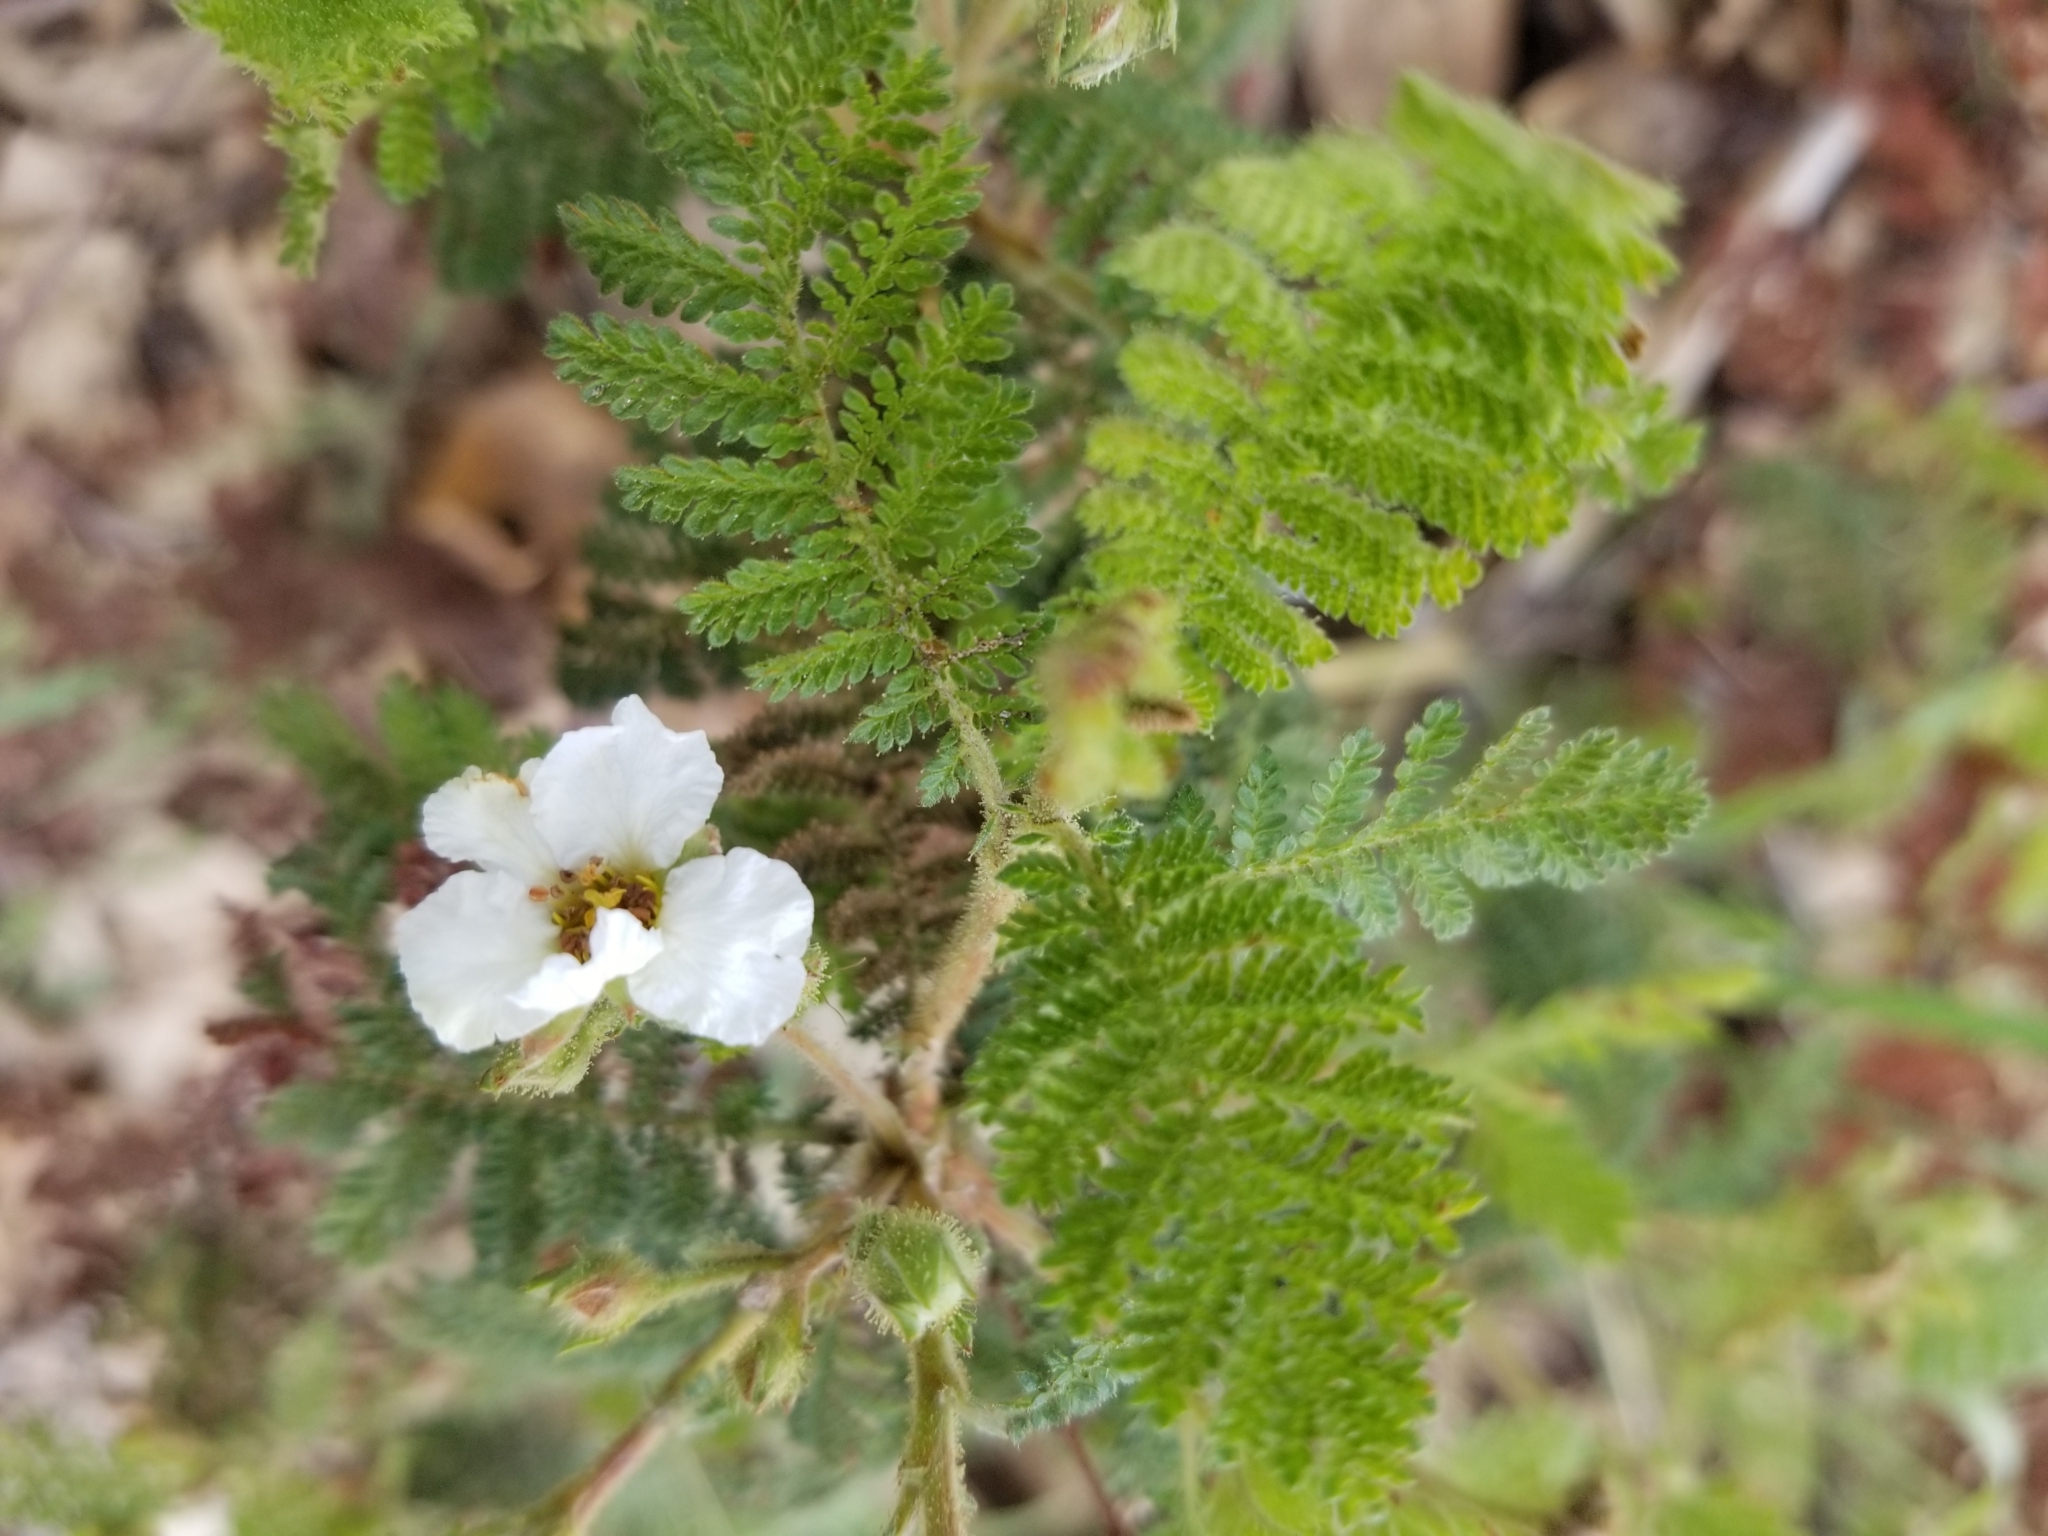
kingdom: Plantae
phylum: Tracheophyta
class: Magnoliopsida
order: Rosales
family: Rosaceae
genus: Chamaebatia
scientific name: Chamaebatia foliolosa
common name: Mountain misery
